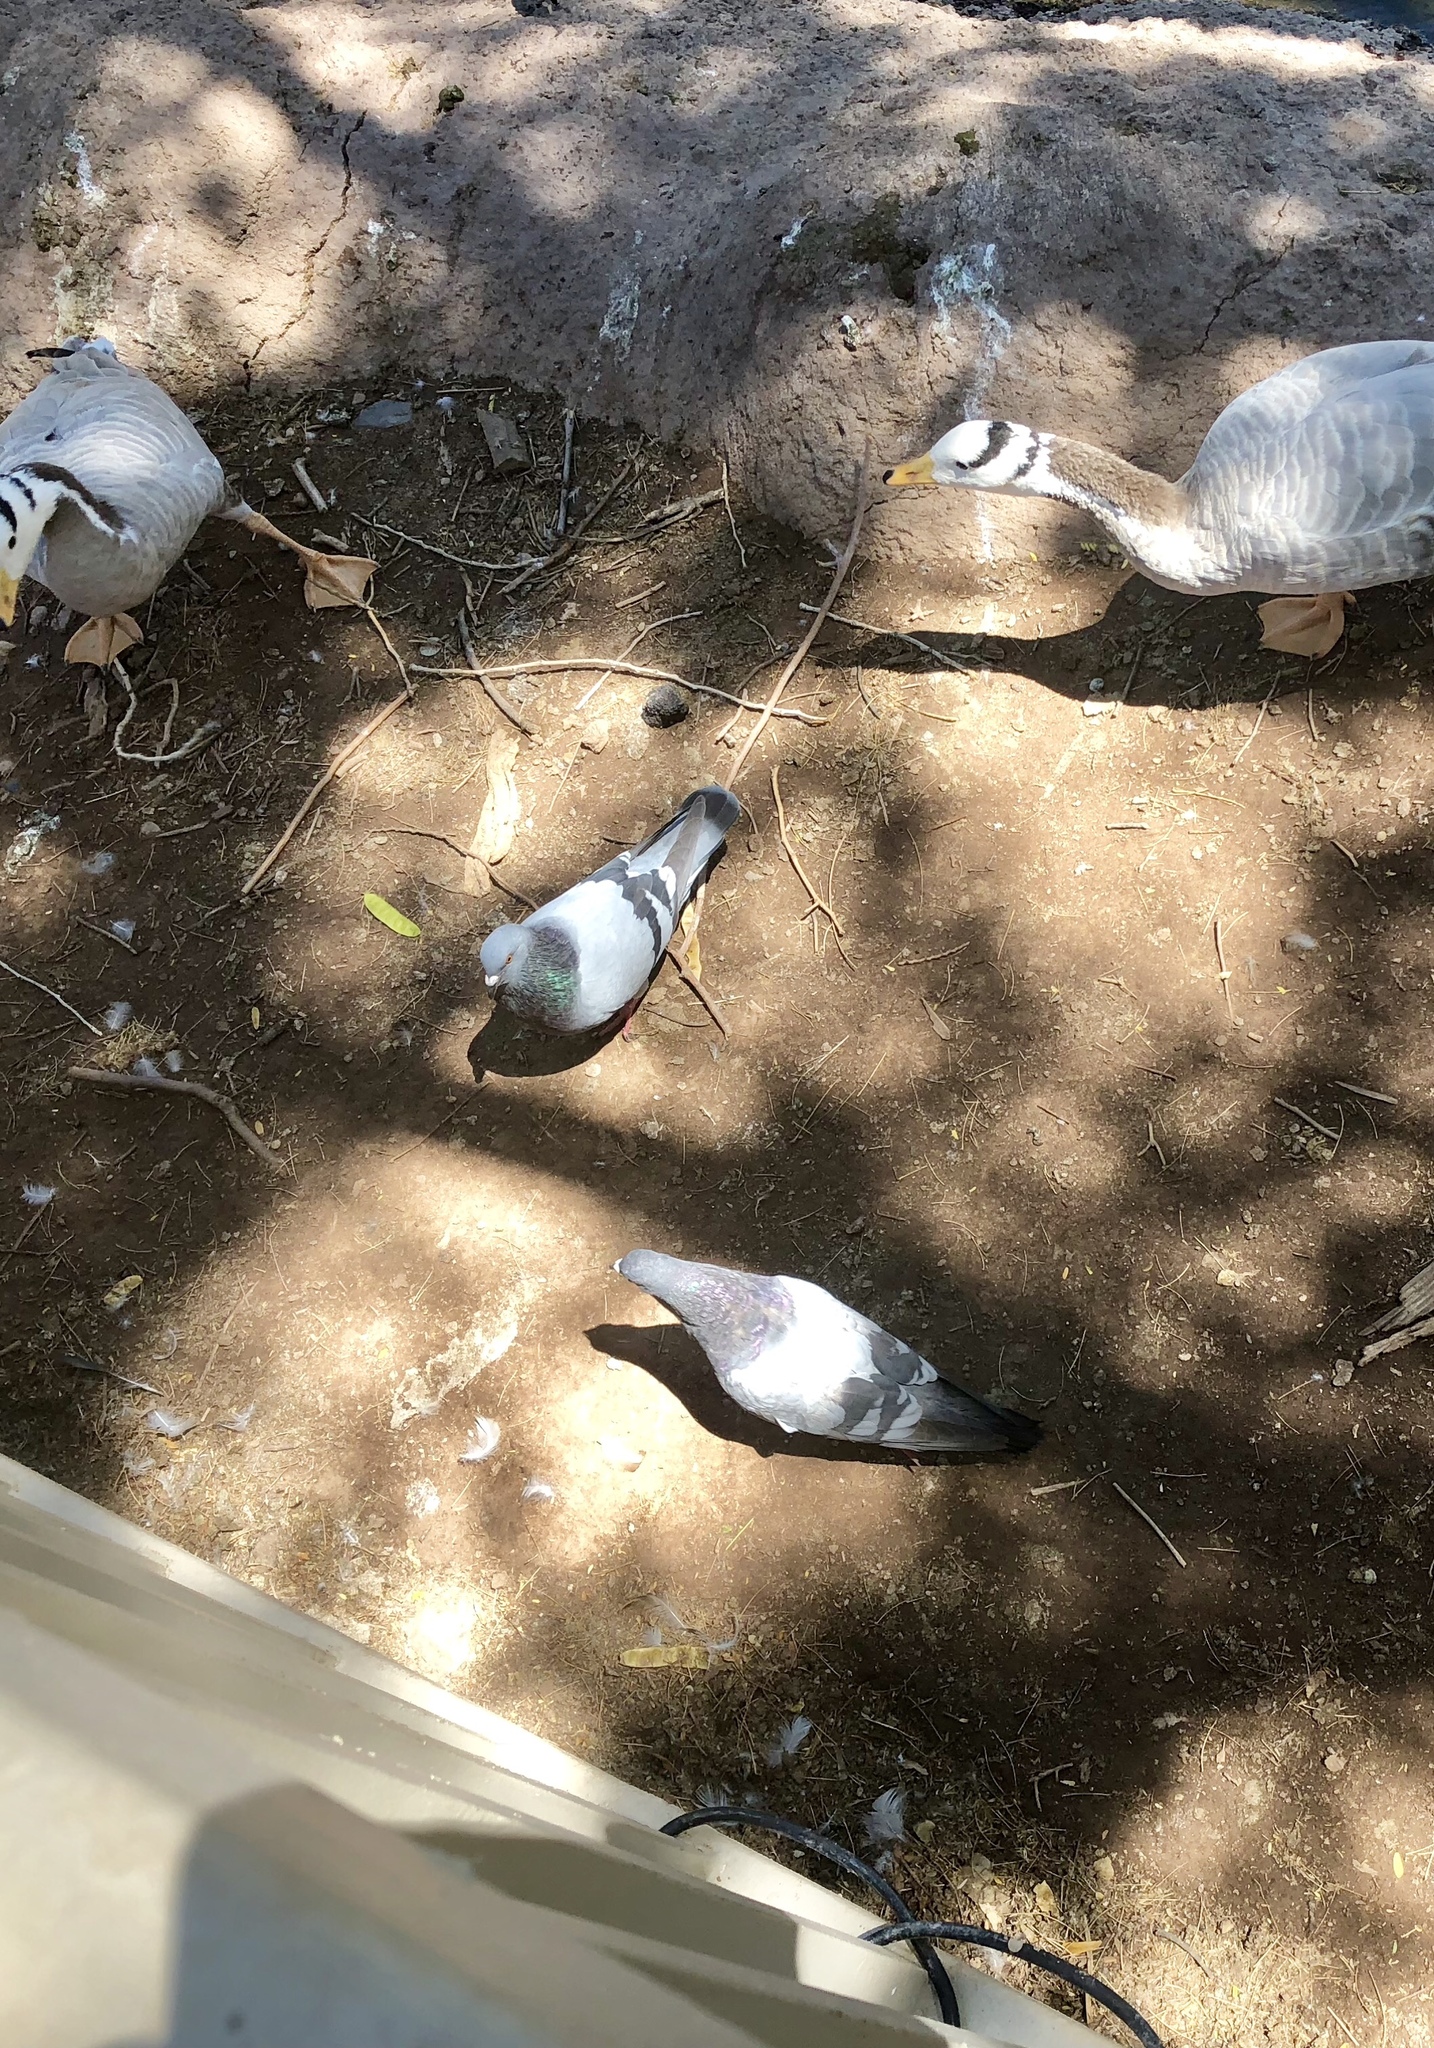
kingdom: Animalia
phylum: Chordata
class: Aves
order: Columbiformes
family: Columbidae
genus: Columba
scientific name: Columba livia
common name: Rock pigeon
